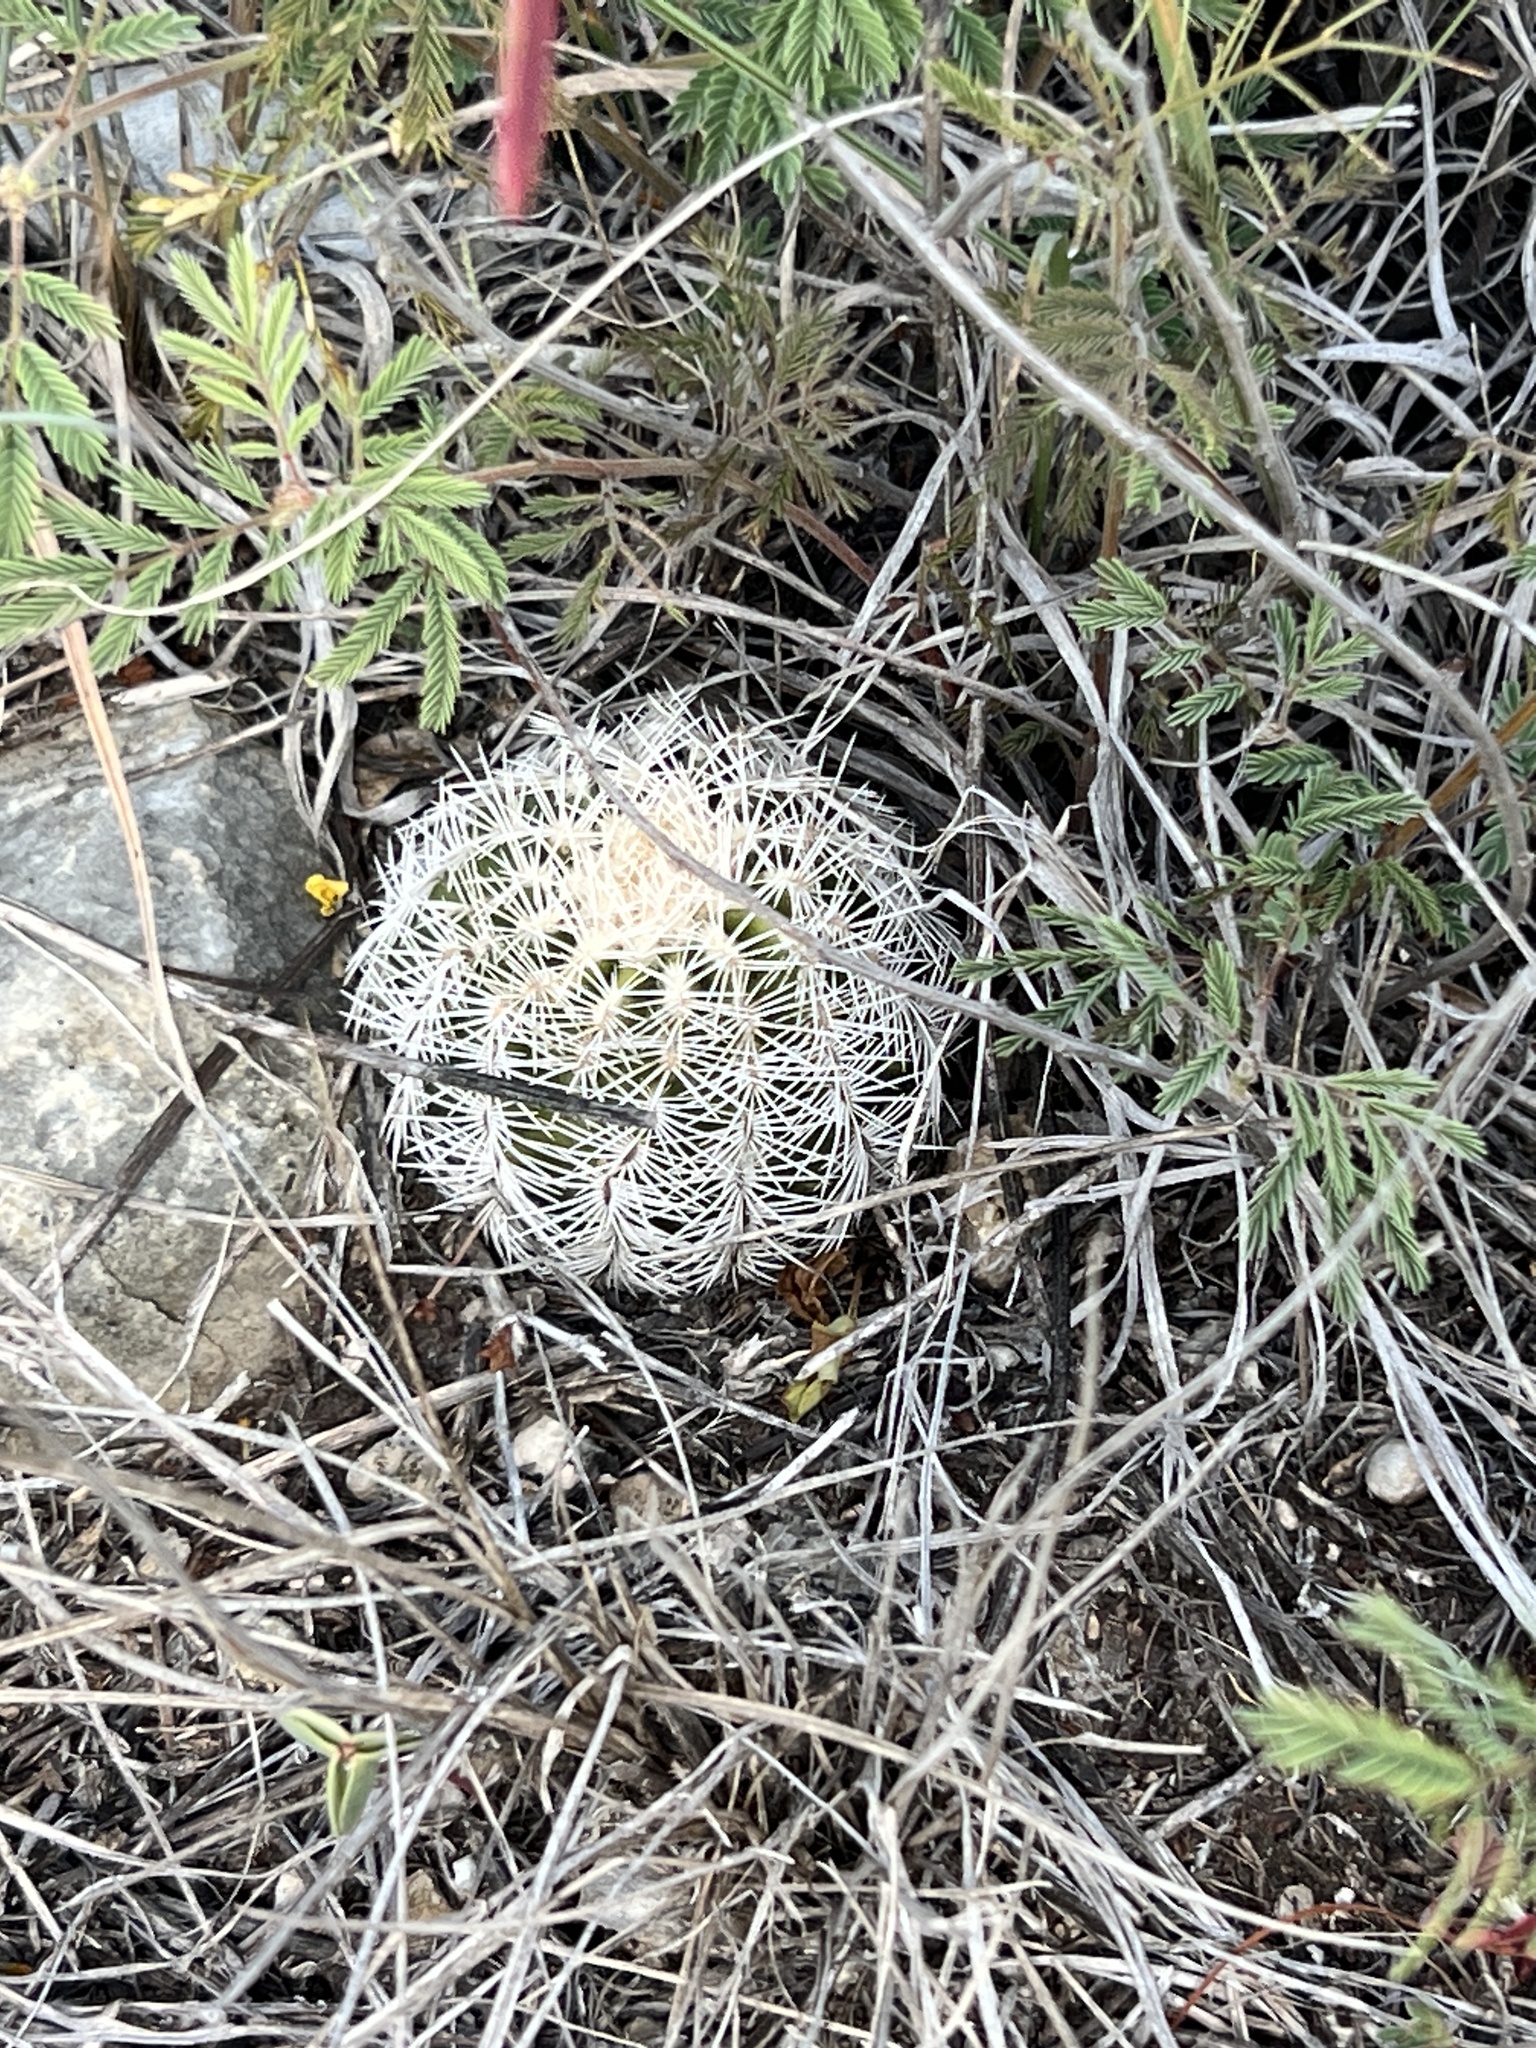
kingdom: Plantae
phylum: Tracheophyta
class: Magnoliopsida
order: Caryophyllales
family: Cactaceae
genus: Echinocereus
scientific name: Echinocereus reichenbachii
